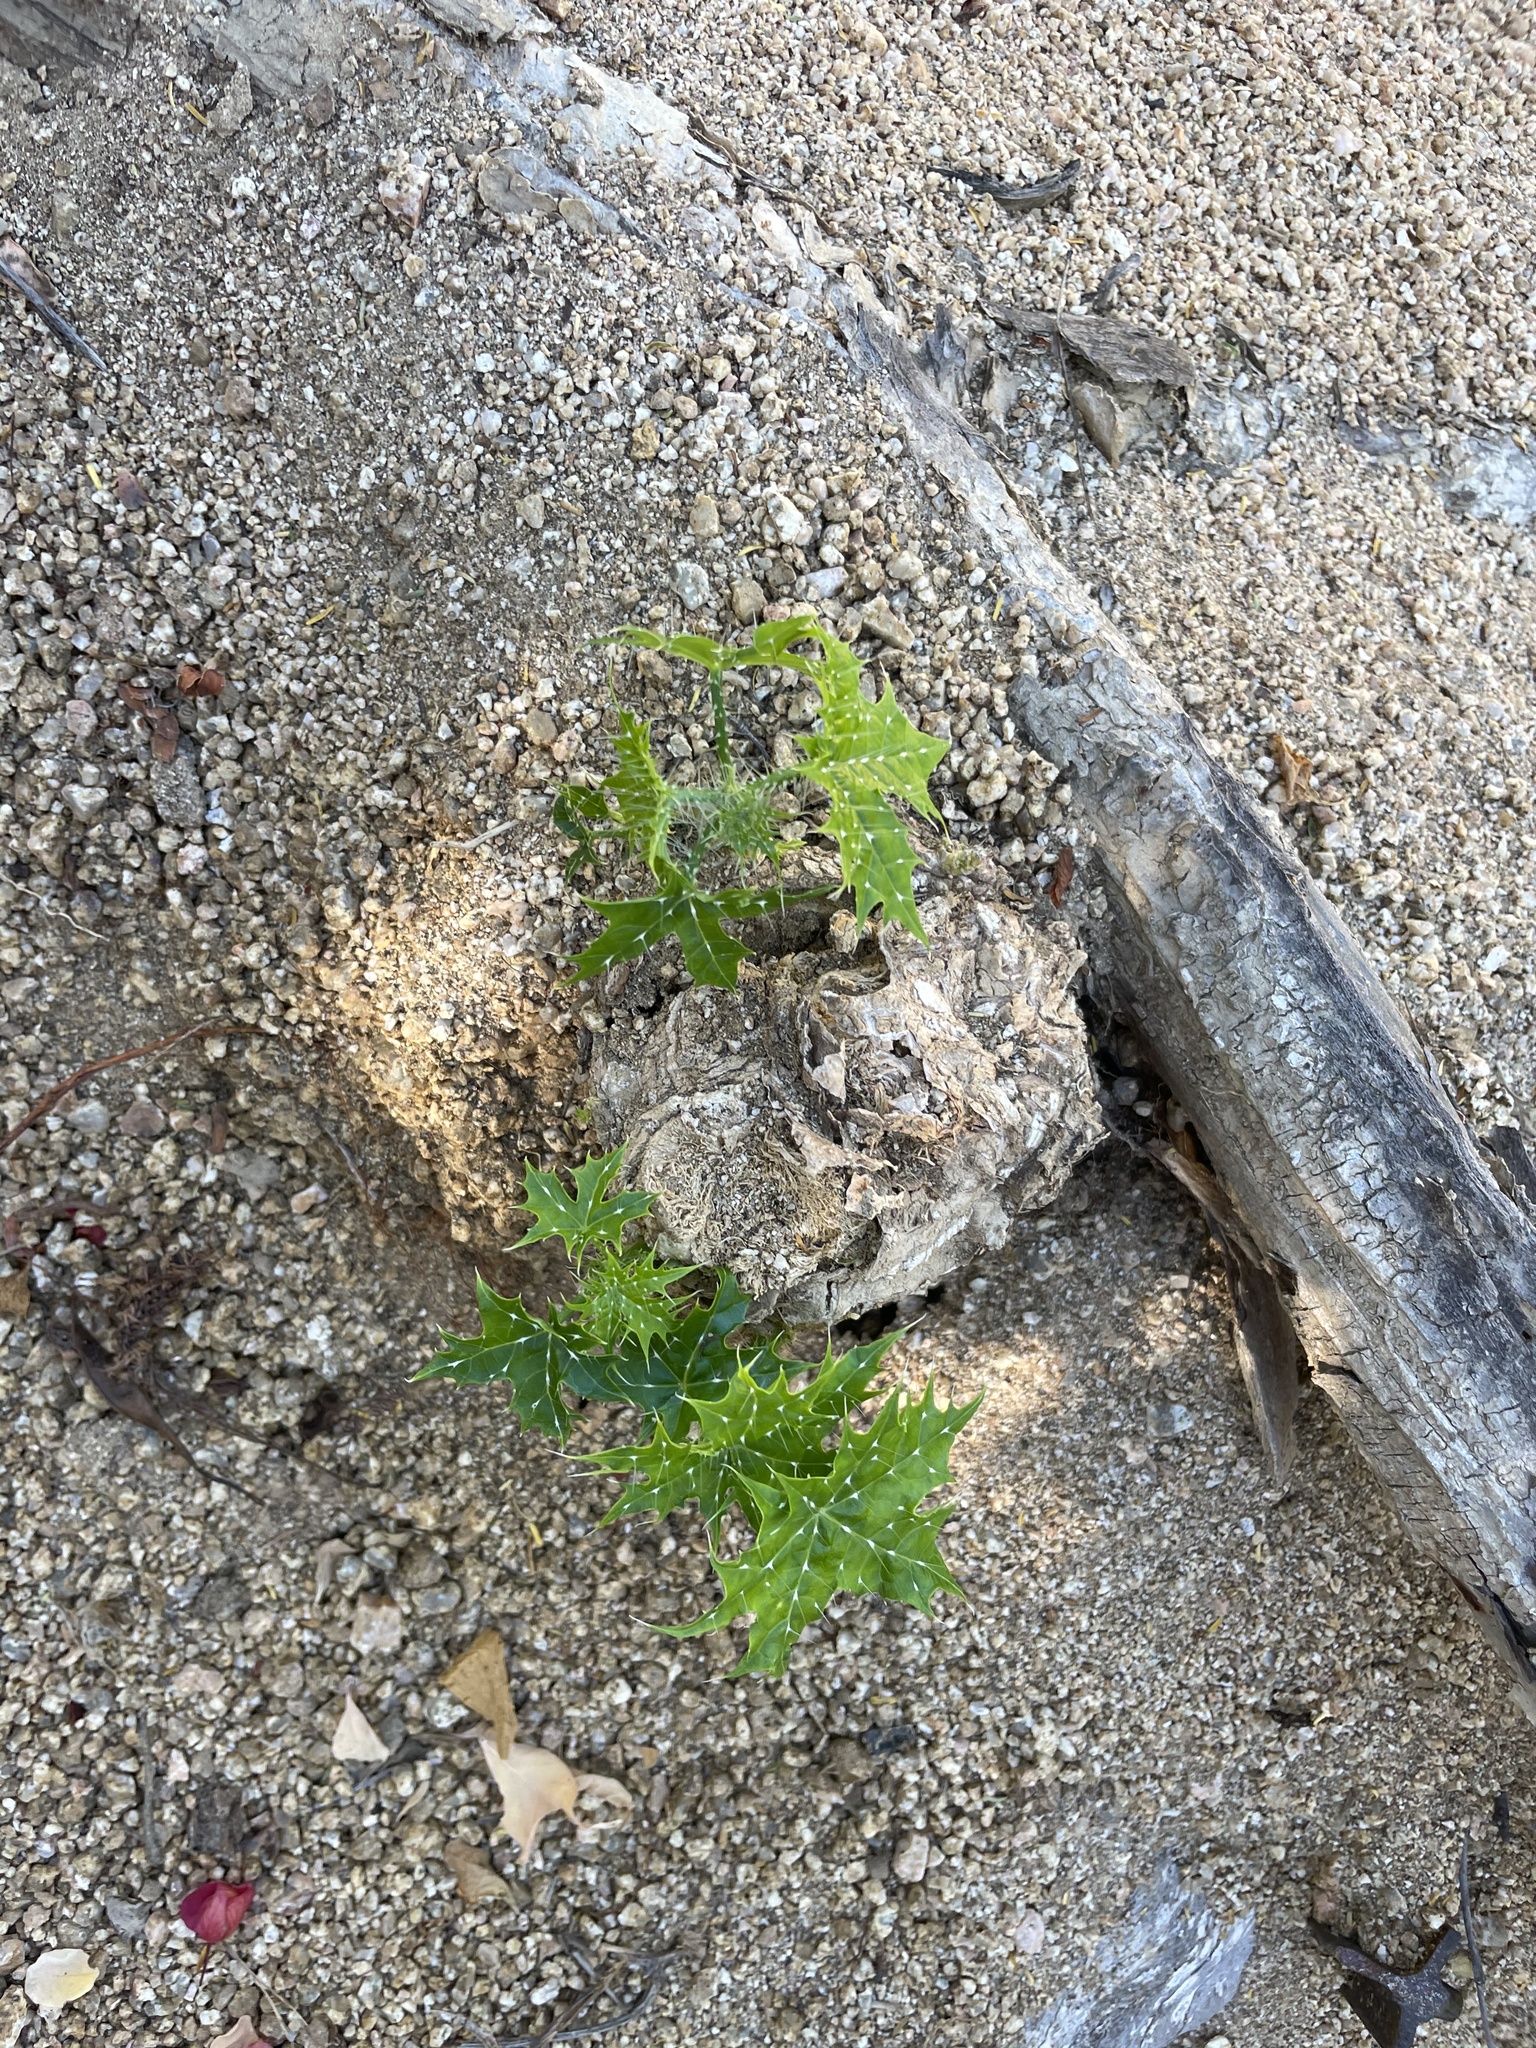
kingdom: Plantae
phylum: Tracheophyta
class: Magnoliopsida
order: Malpighiales
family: Euphorbiaceae
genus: Cnidoscolus
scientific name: Cnidoscolus maculatus
